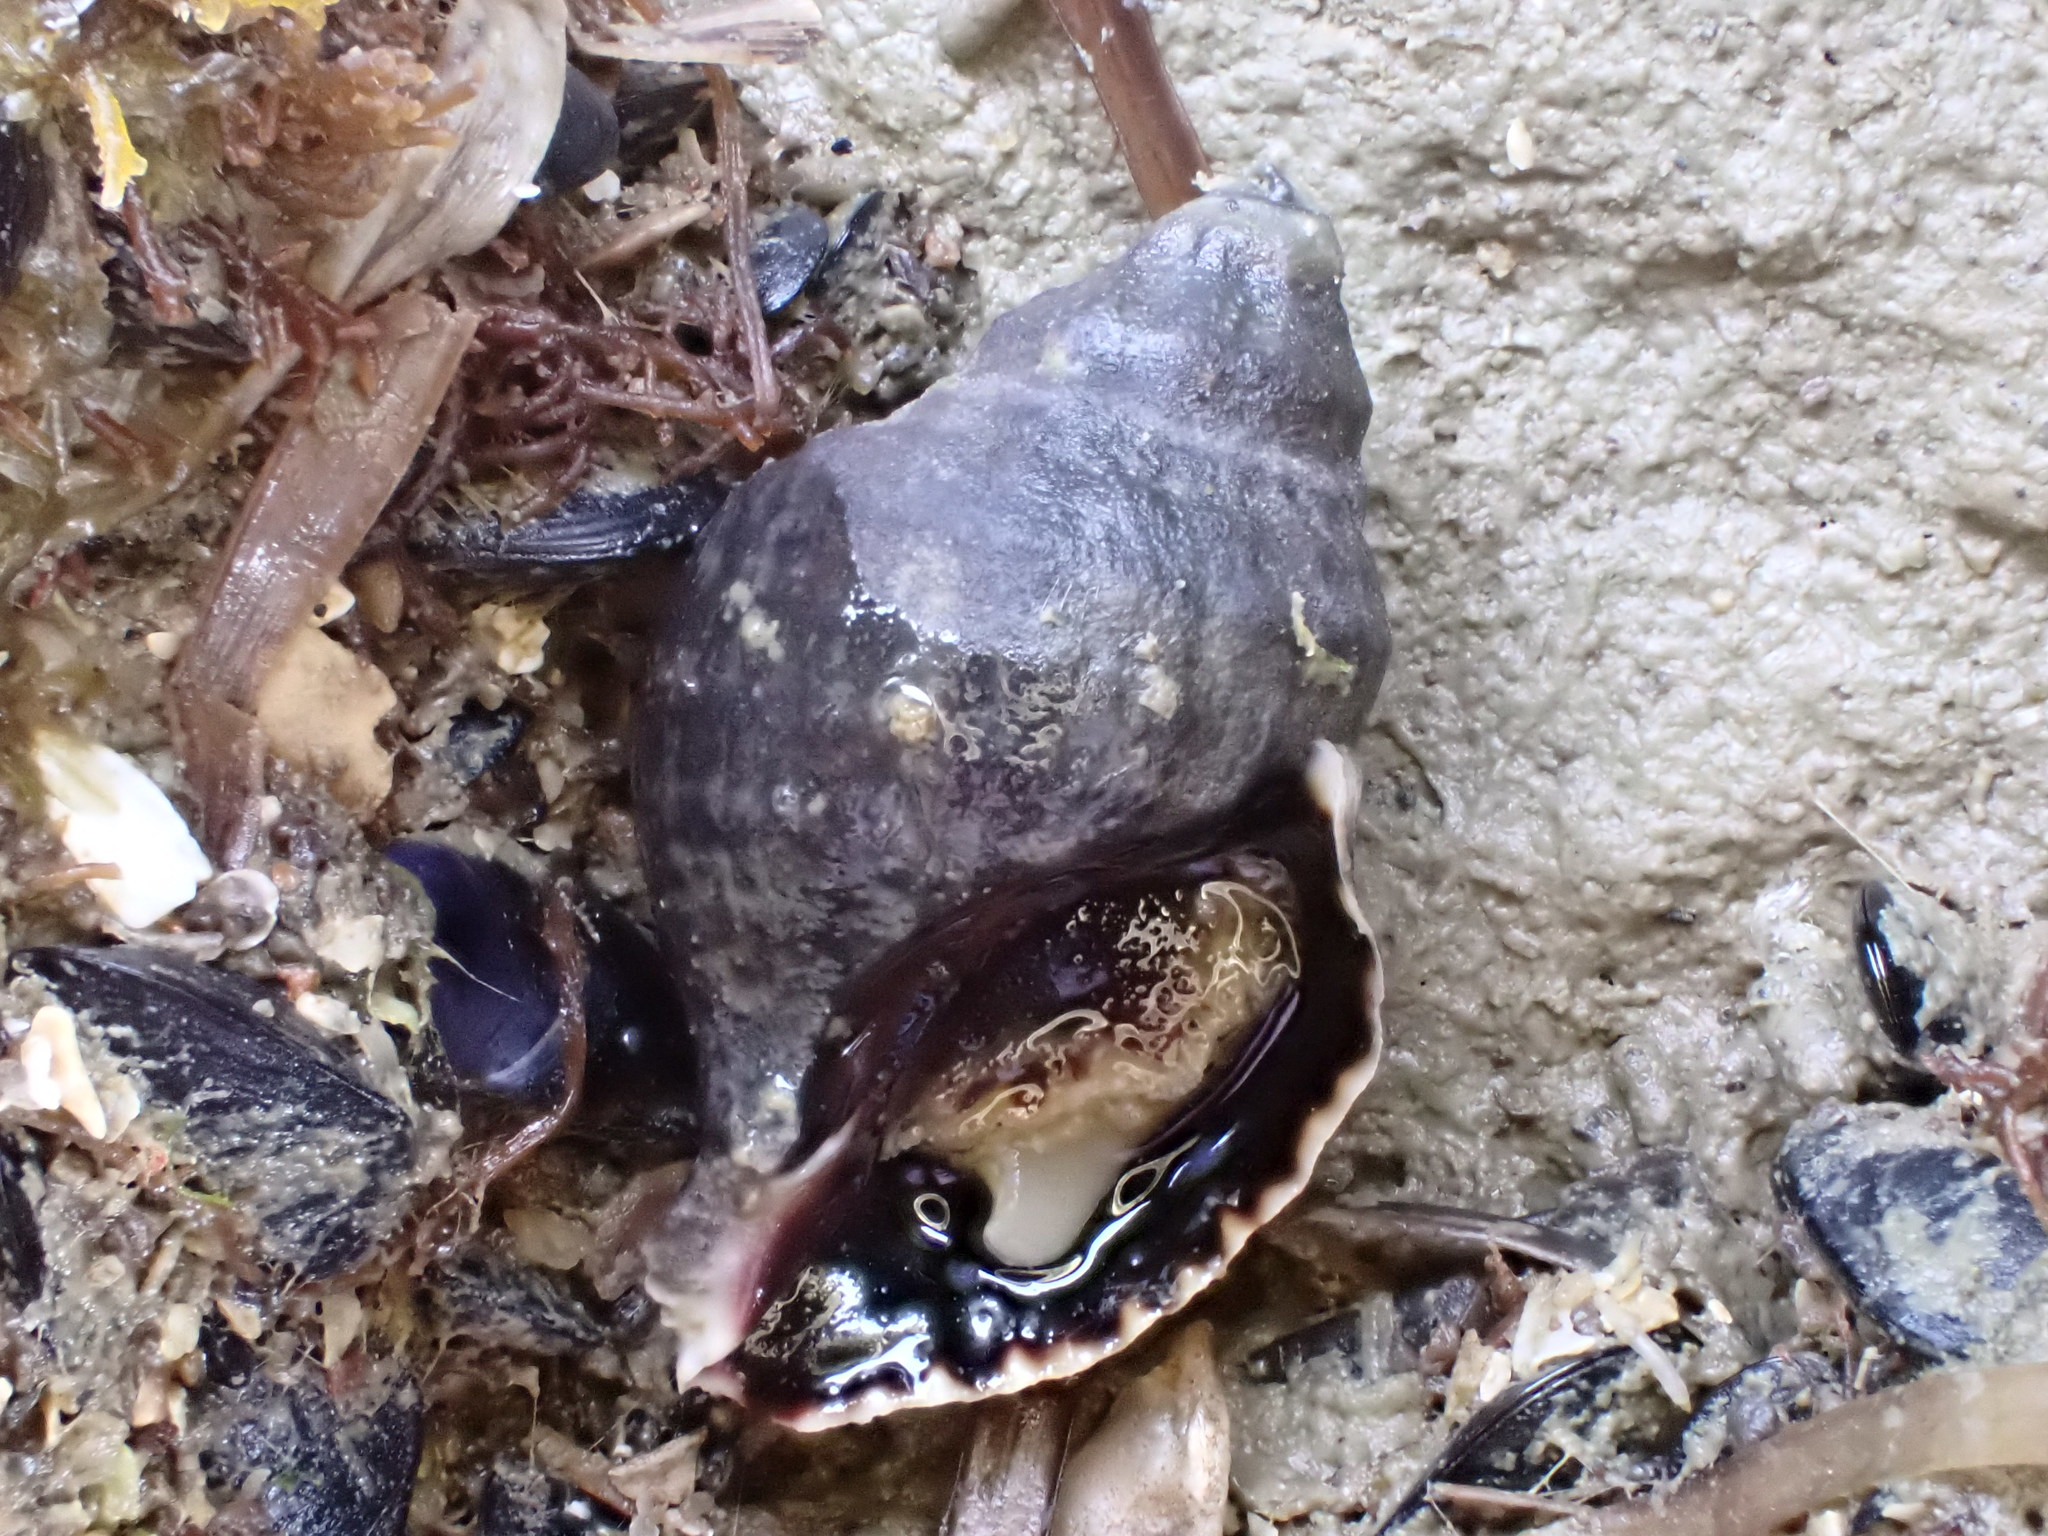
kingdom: Animalia
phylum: Mollusca
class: Gastropoda
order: Neogastropoda
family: Muricidae
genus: Haustrum
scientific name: Haustrum albomarginatum
